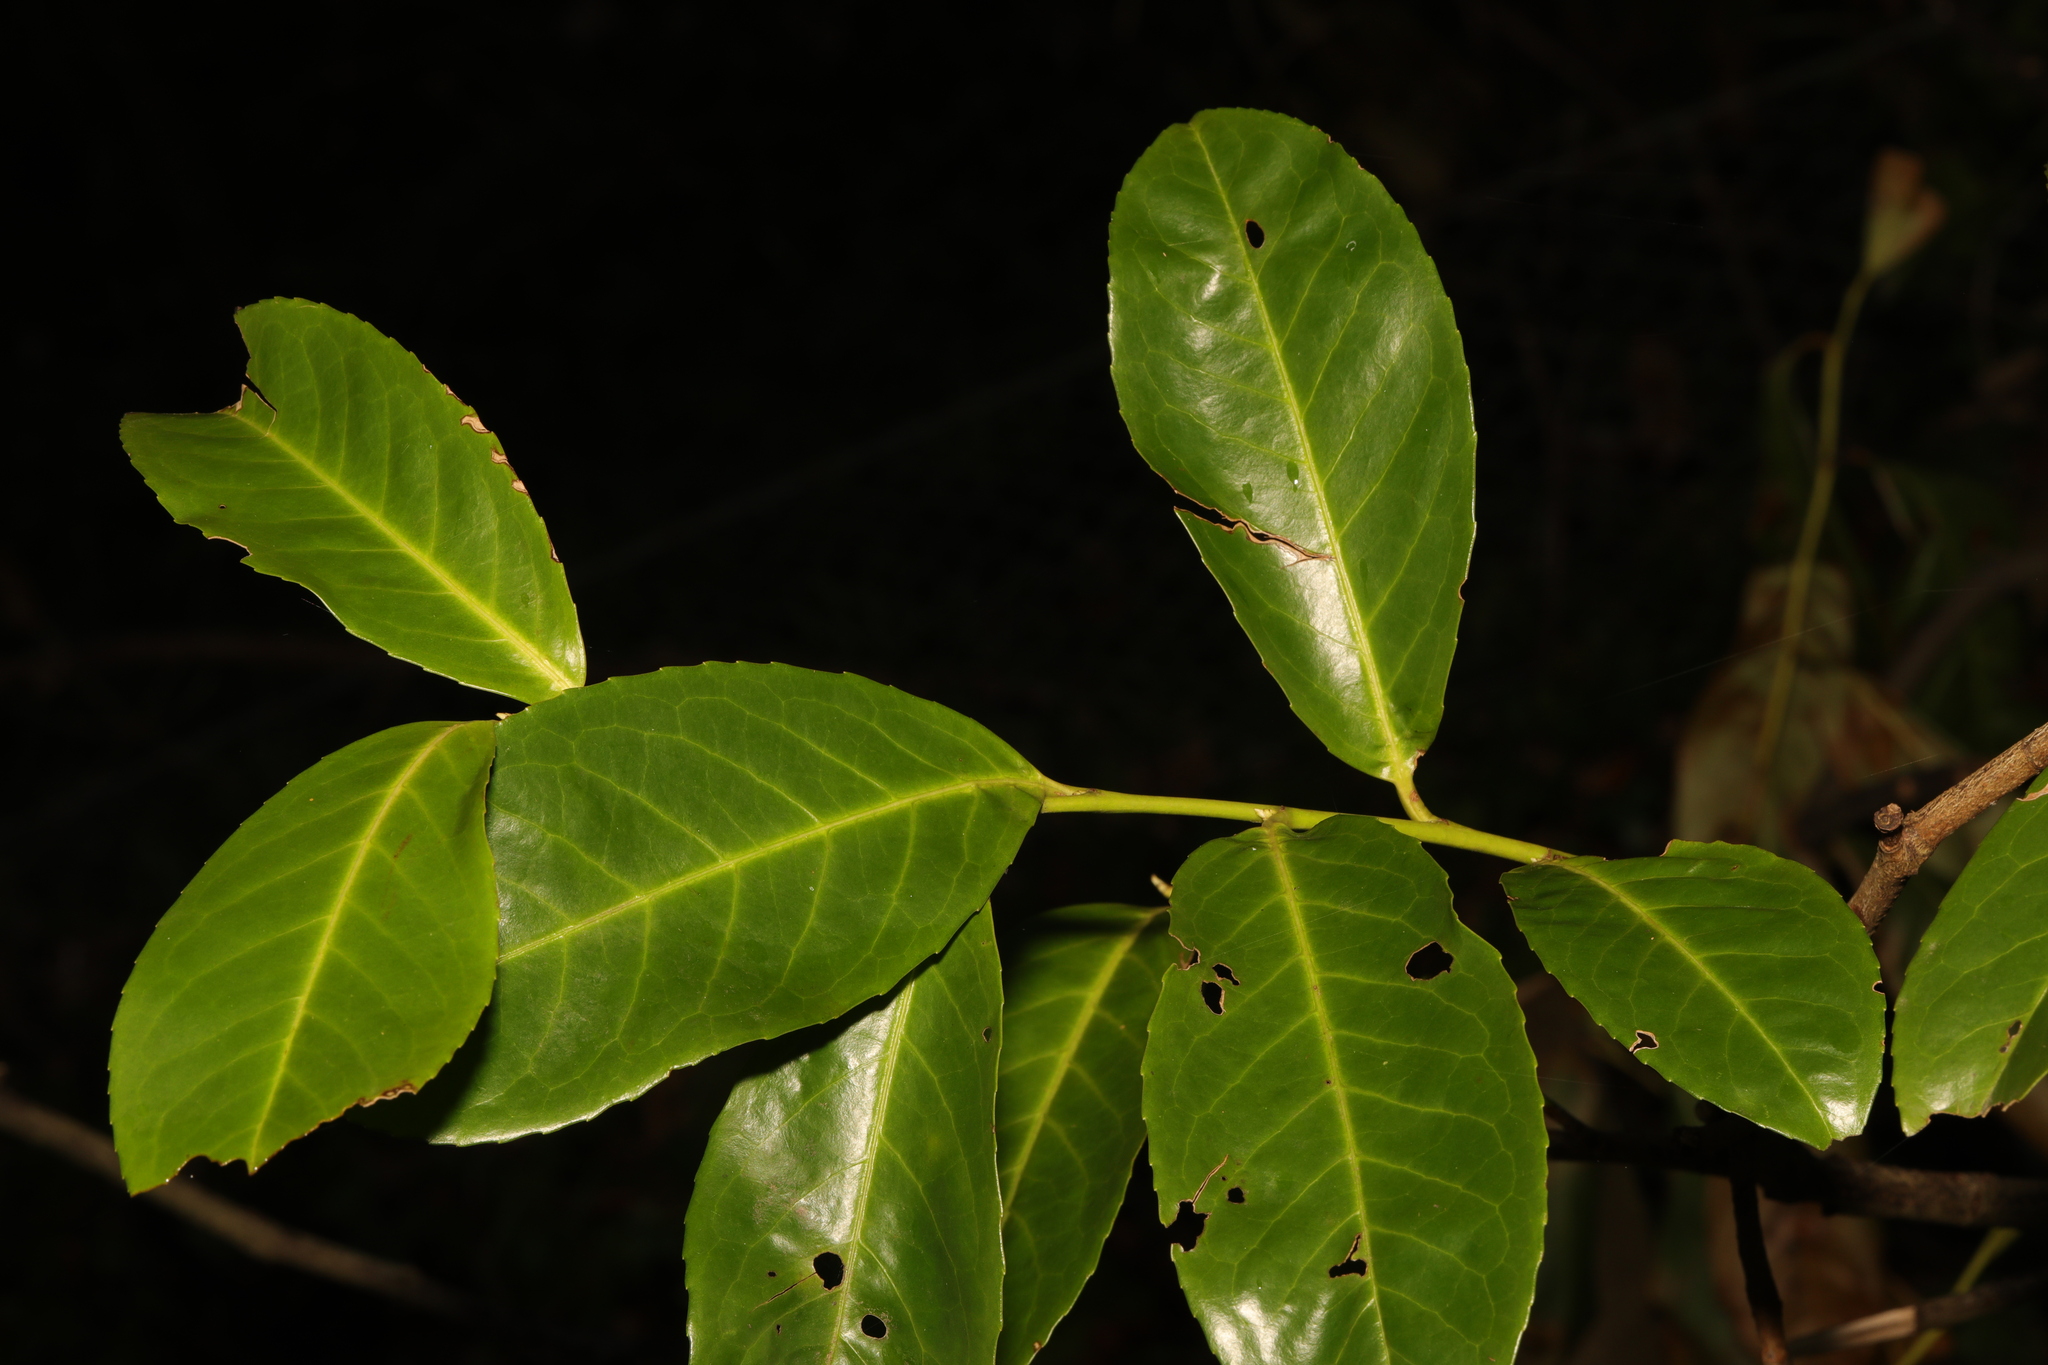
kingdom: Plantae
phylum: Tracheophyta
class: Magnoliopsida
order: Rosales
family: Rosaceae
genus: Prunus
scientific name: Prunus laurocerasus
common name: Cherry laurel
